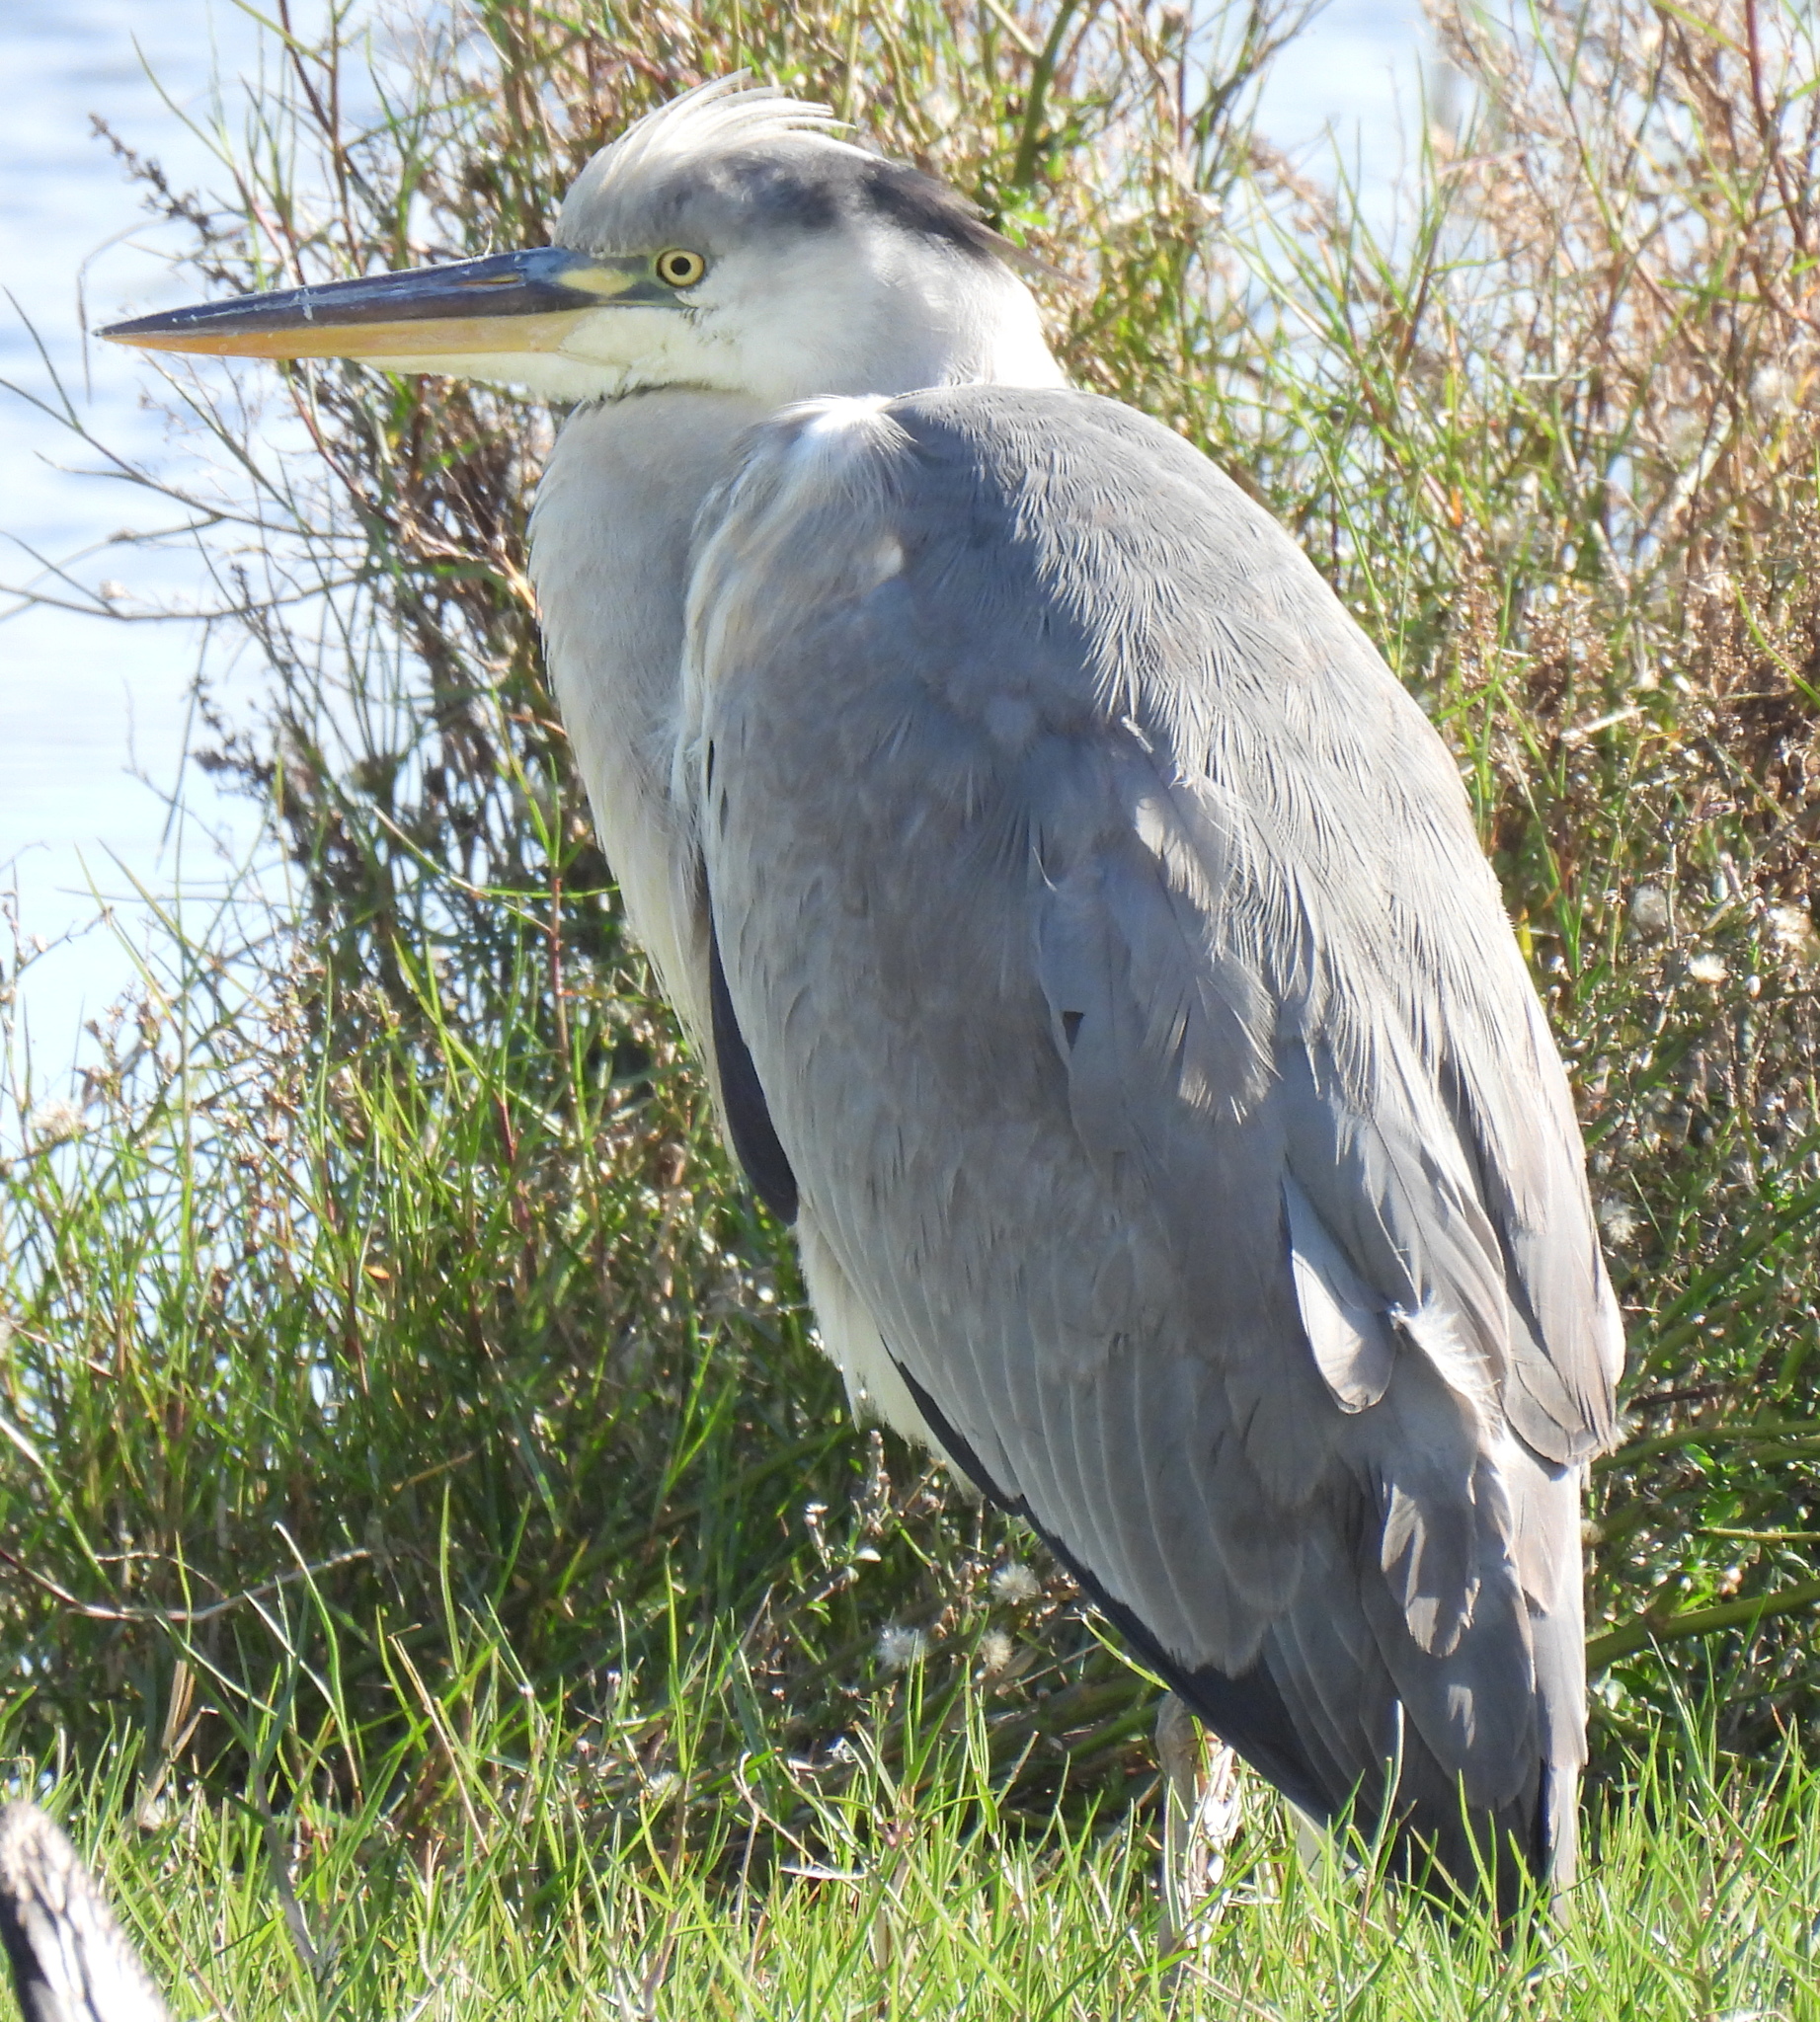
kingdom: Animalia
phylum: Chordata
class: Aves
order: Pelecaniformes
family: Ardeidae
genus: Ardea
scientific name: Ardea cinerea
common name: Grey heron
